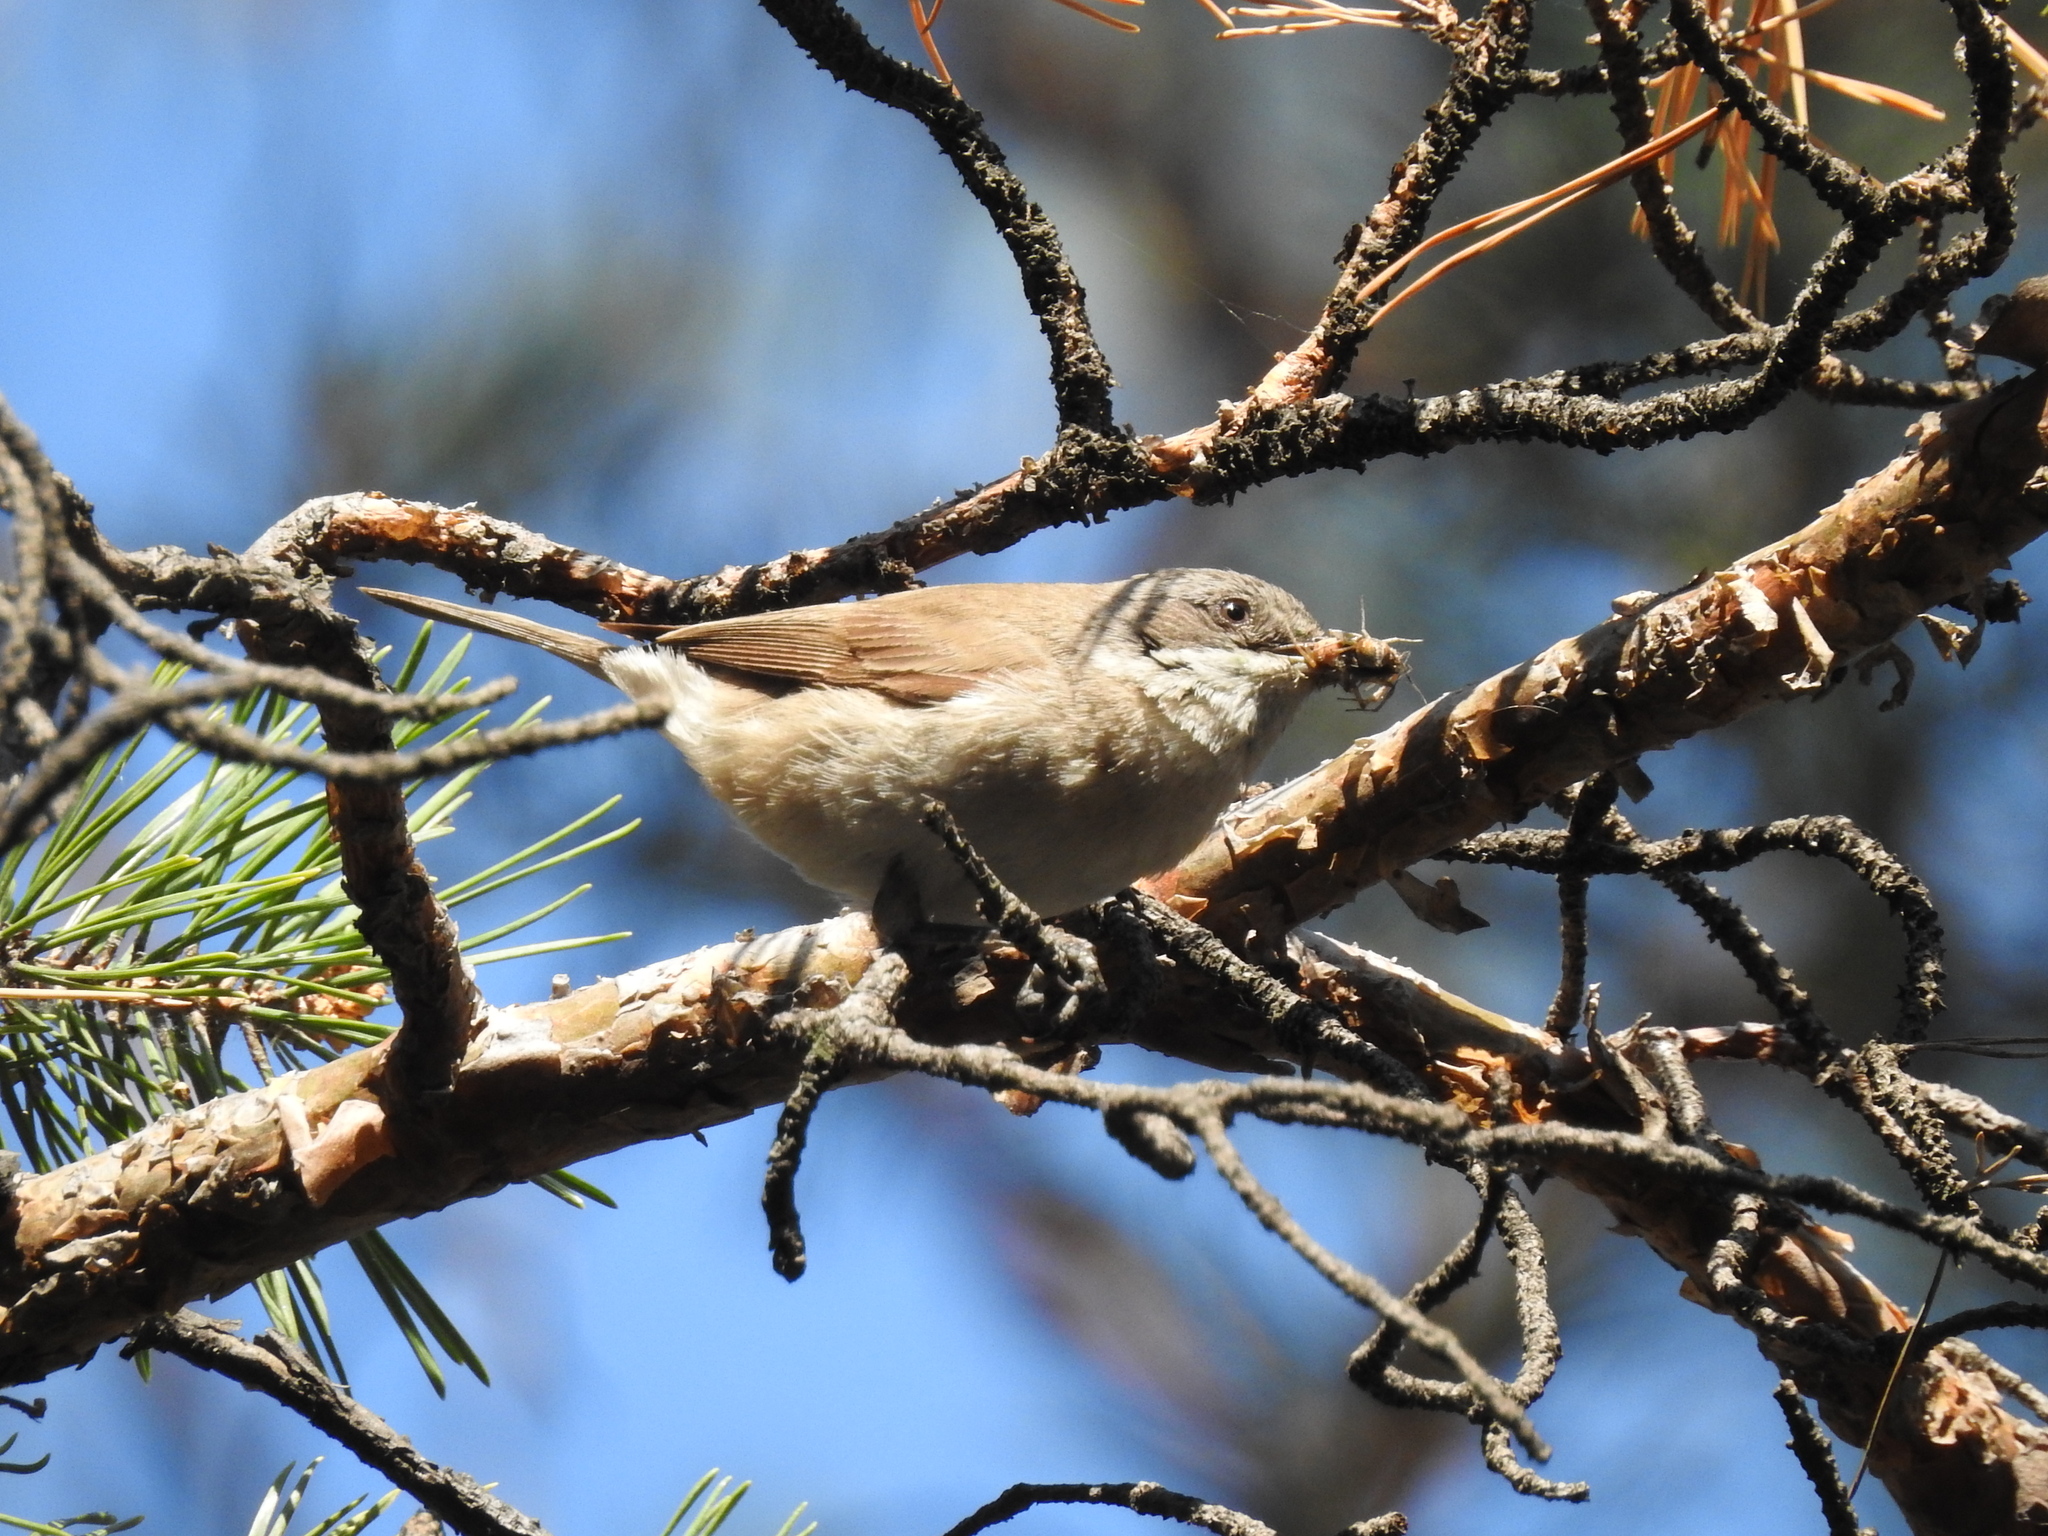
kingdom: Animalia
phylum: Chordata
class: Aves
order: Passeriformes
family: Sylviidae
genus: Sylvia
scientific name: Sylvia curruca
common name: Lesser whitethroat
